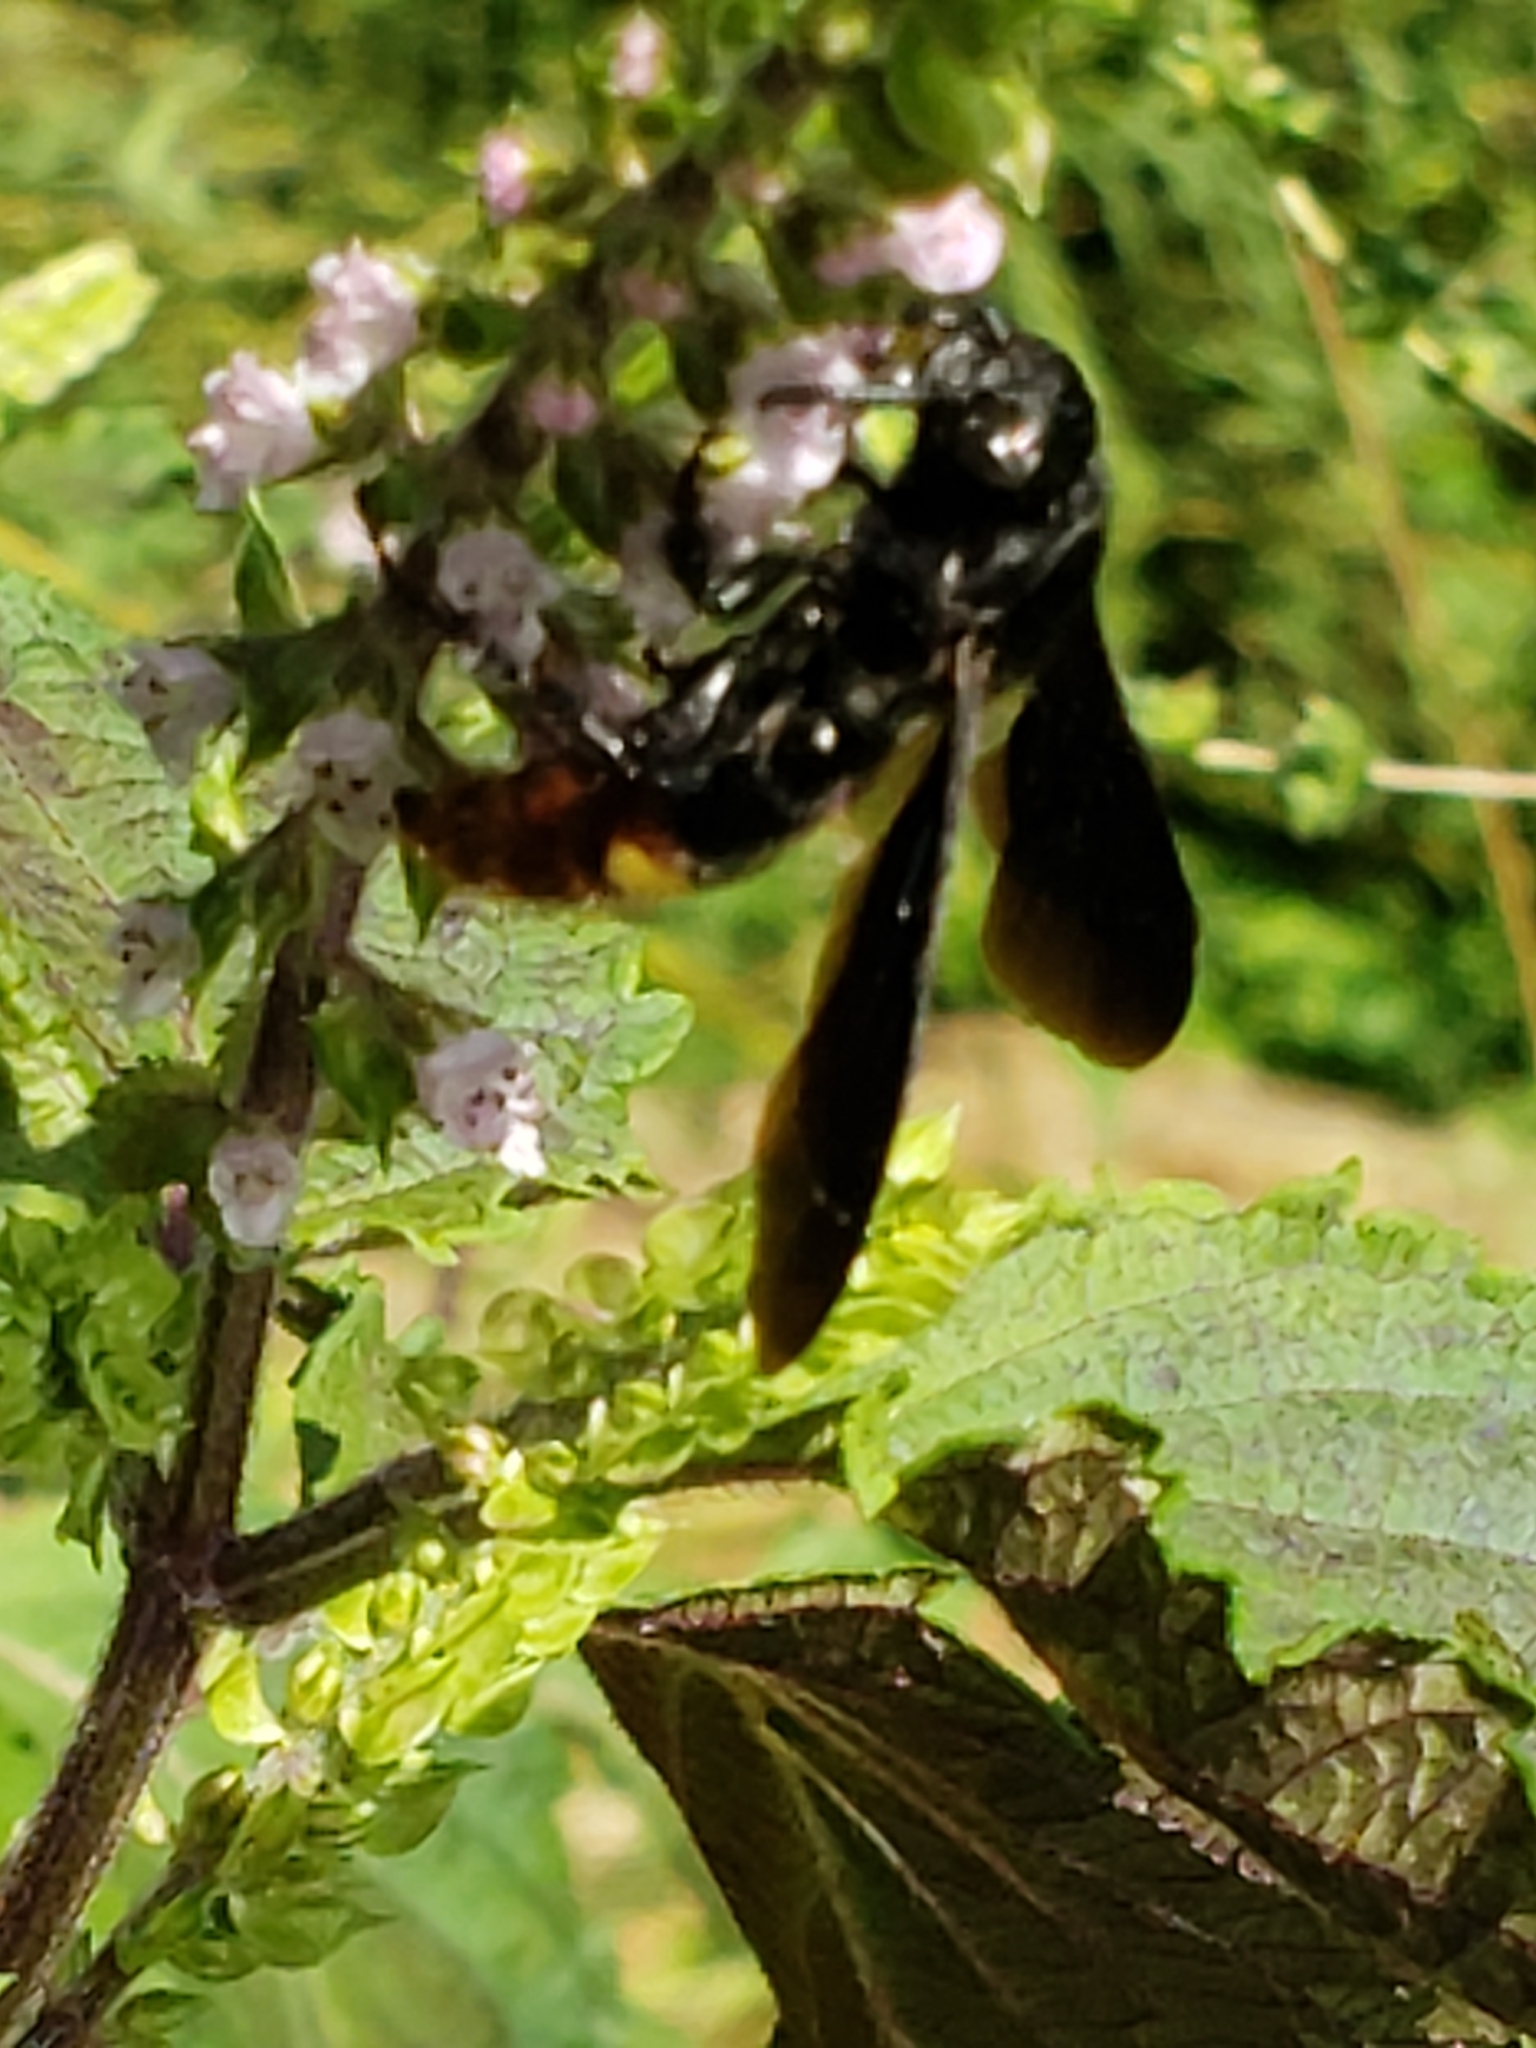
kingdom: Animalia
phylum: Arthropoda
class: Insecta
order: Hymenoptera
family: Scoliidae
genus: Scolia
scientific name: Scolia dubia
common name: Blue-winged scoliid wasp
